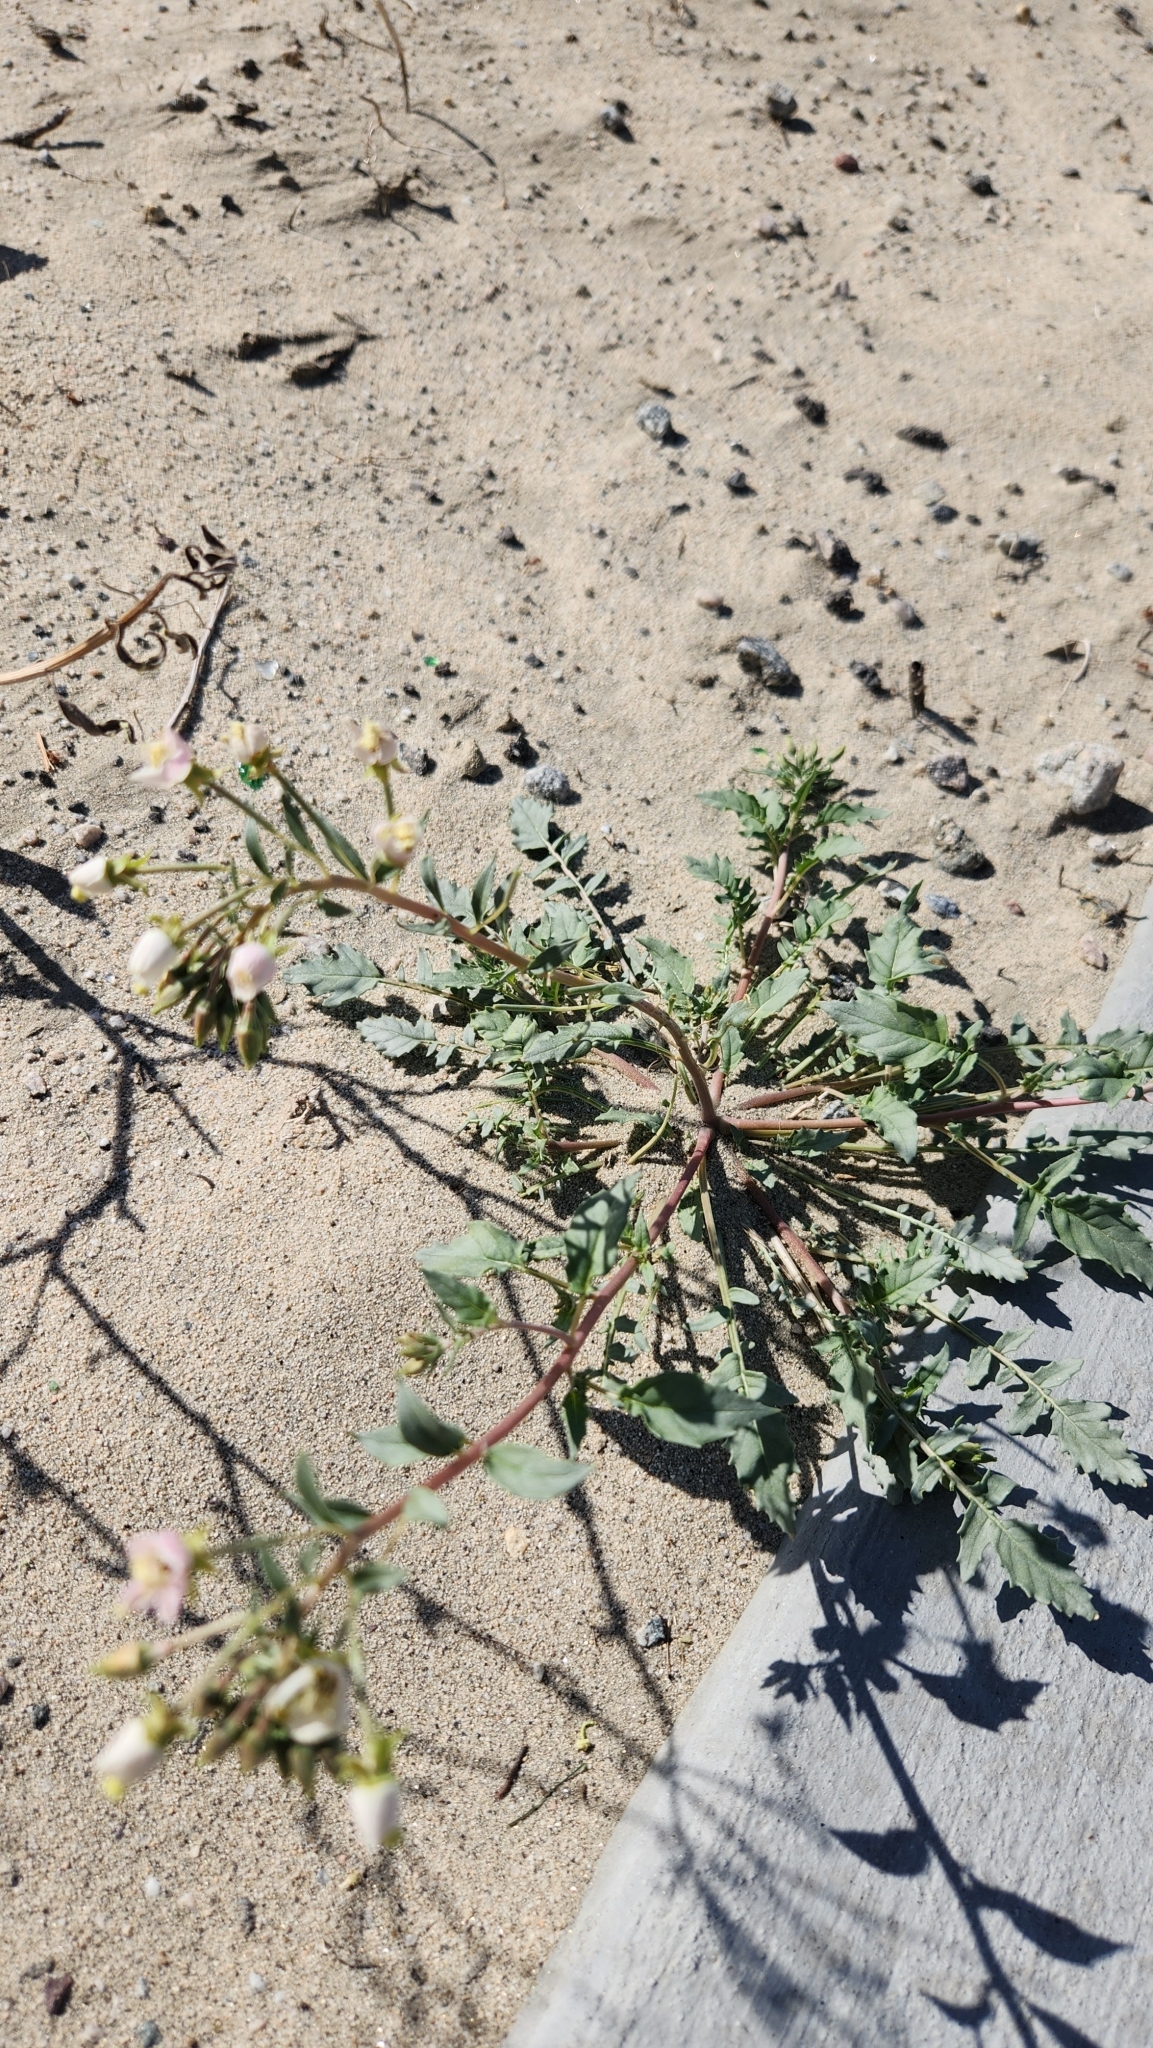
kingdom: Plantae
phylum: Tracheophyta
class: Magnoliopsida
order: Myrtales
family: Onagraceae
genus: Chylismia
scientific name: Chylismia claviformis
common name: Browneyes
